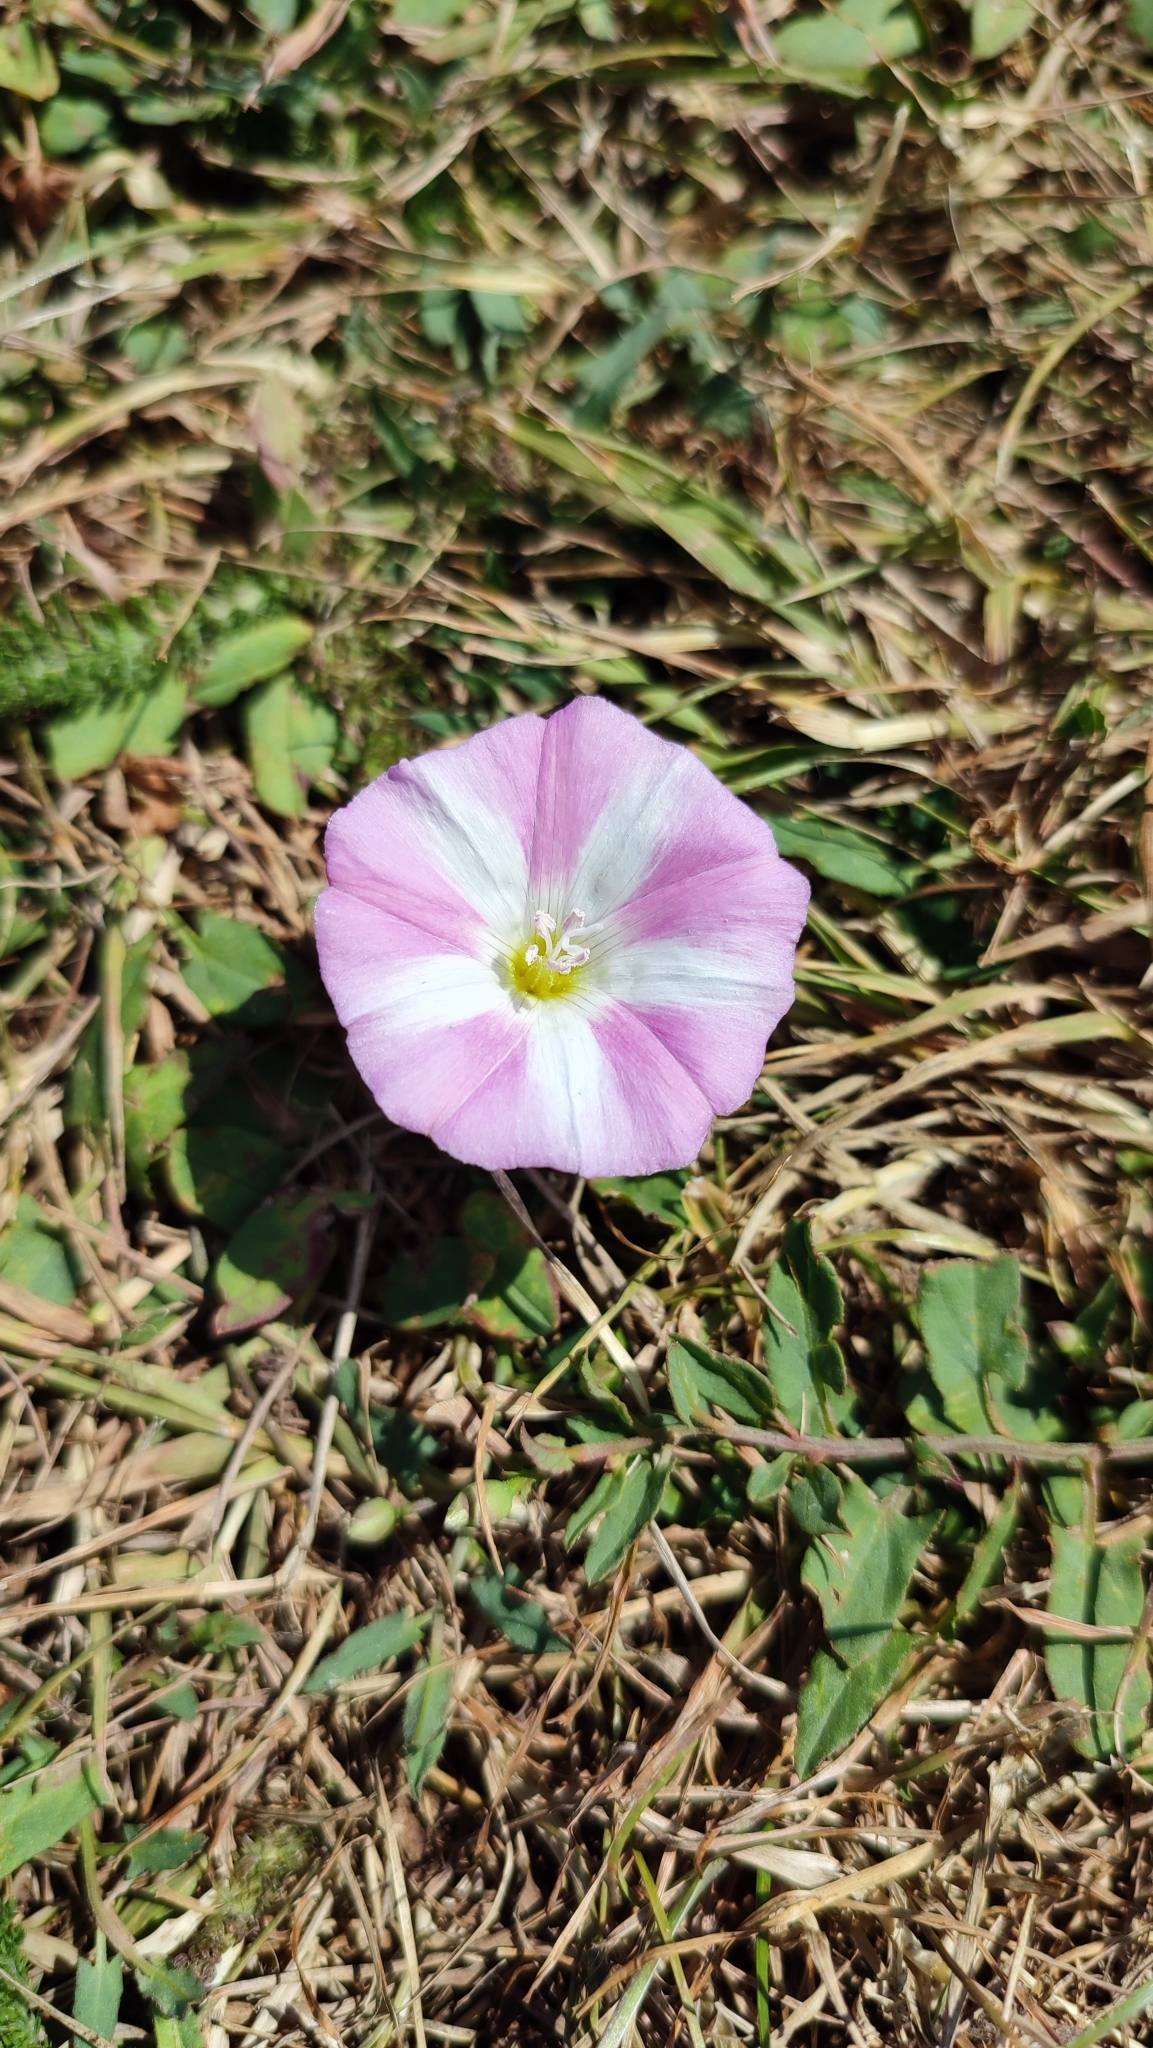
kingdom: Plantae
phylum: Tracheophyta
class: Magnoliopsida
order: Solanales
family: Convolvulaceae
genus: Convolvulus
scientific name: Convolvulus arvensis
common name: Field bindweed
